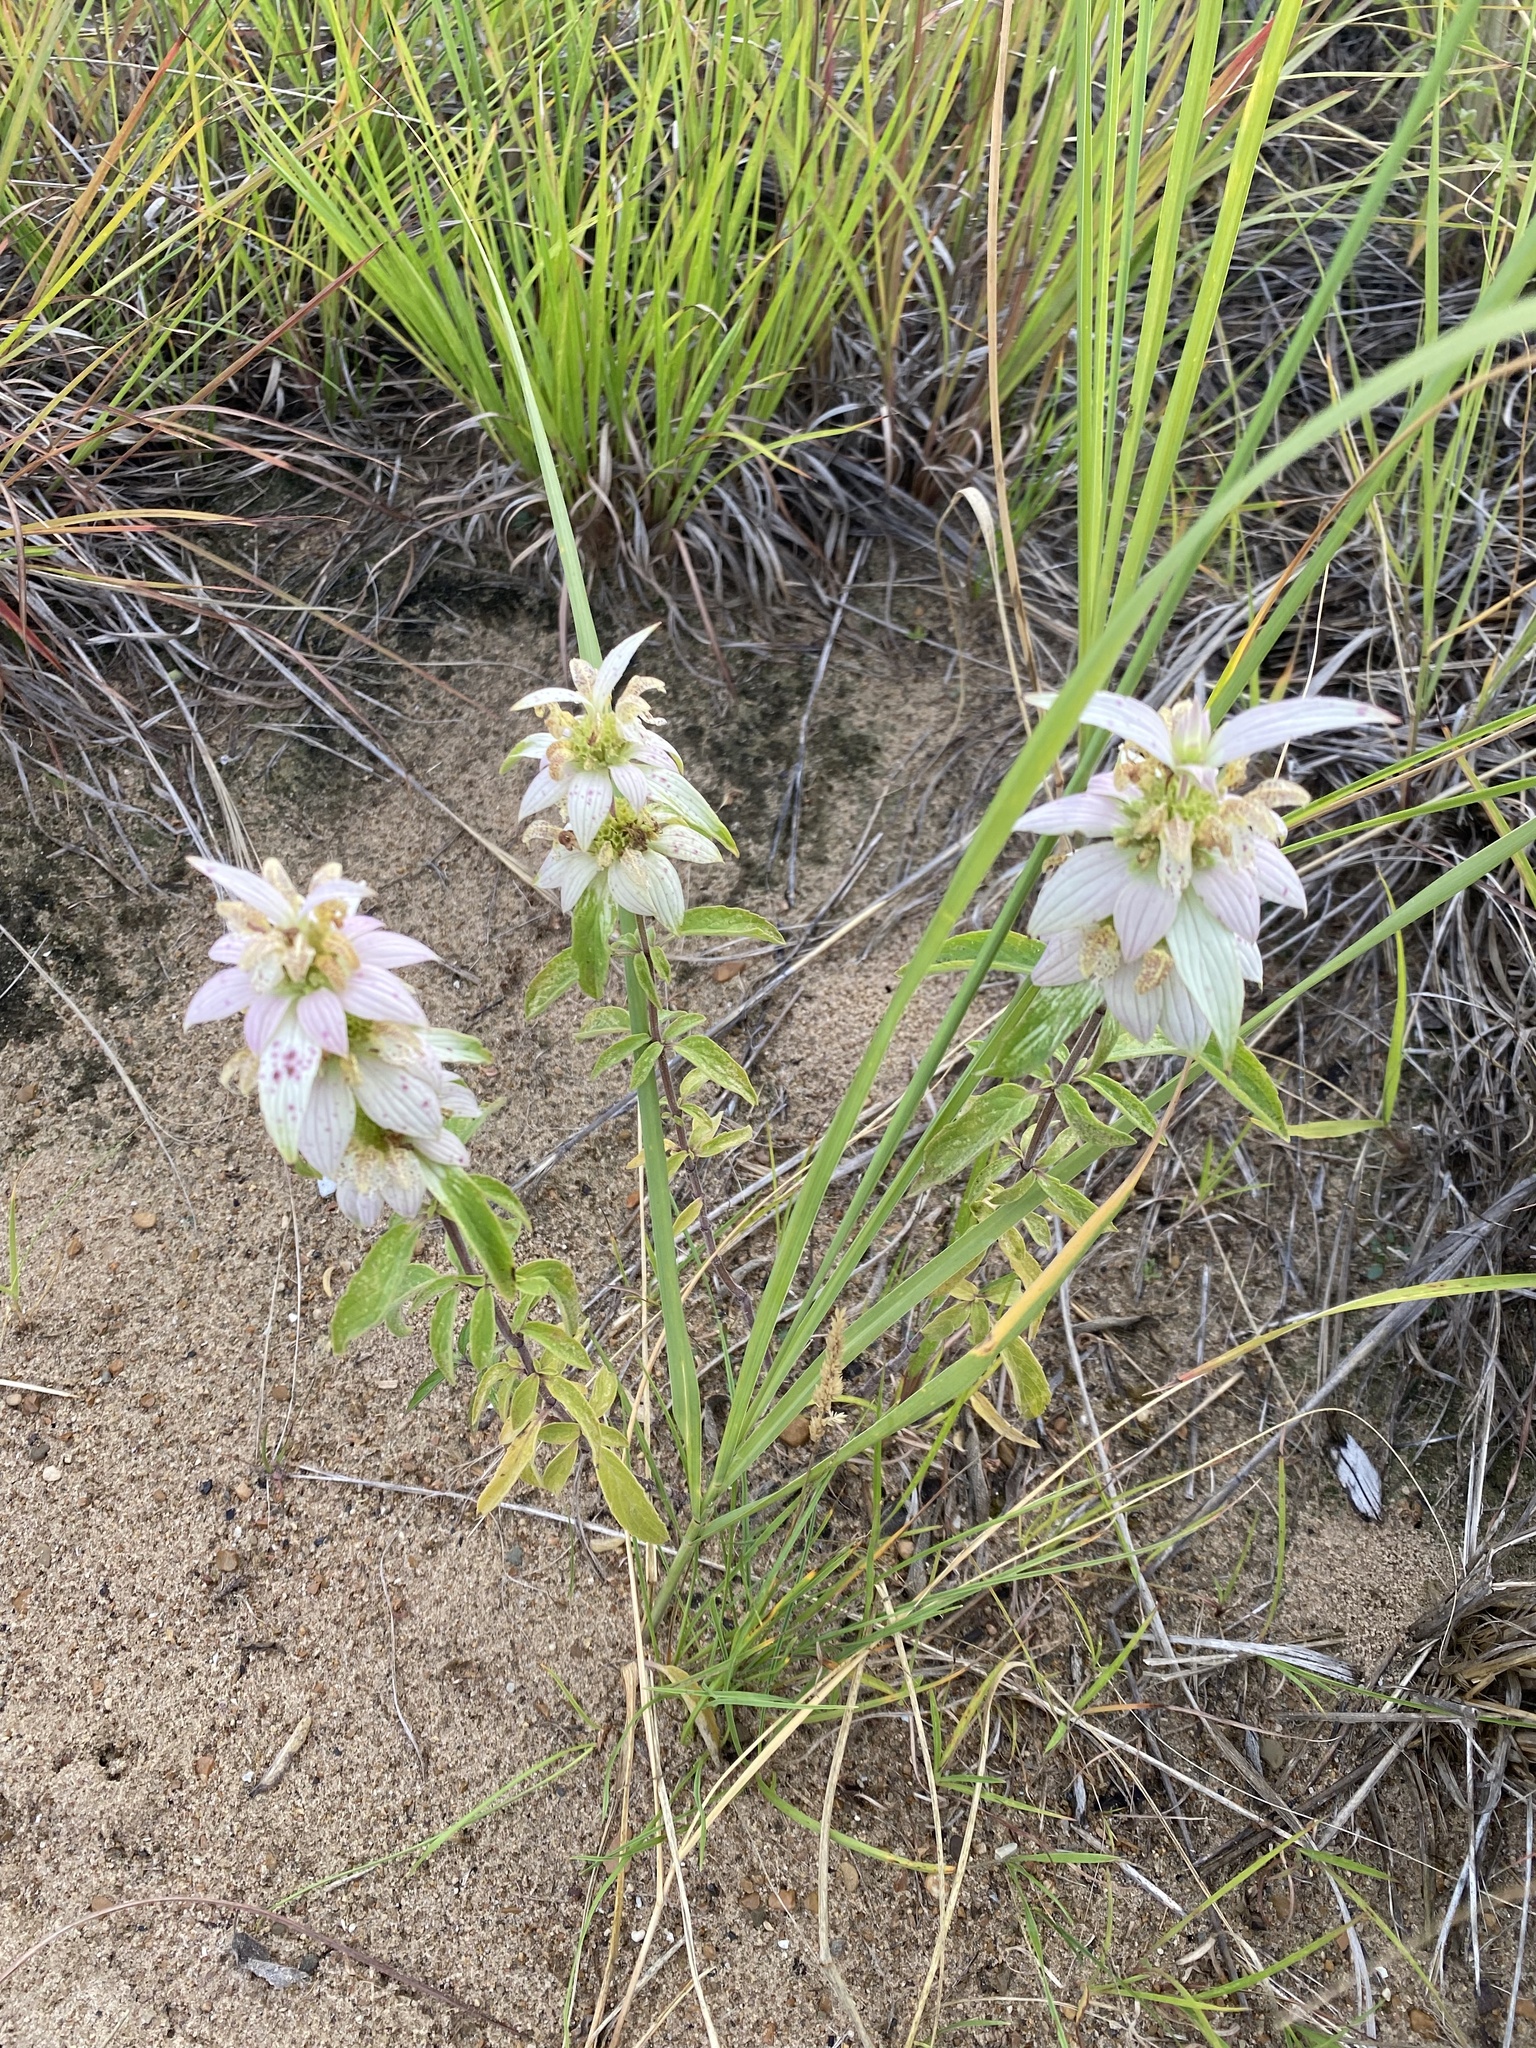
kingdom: Plantae
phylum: Tracheophyta
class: Magnoliopsida
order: Lamiales
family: Lamiaceae
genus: Monarda
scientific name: Monarda punctata
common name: Dotted monarda
